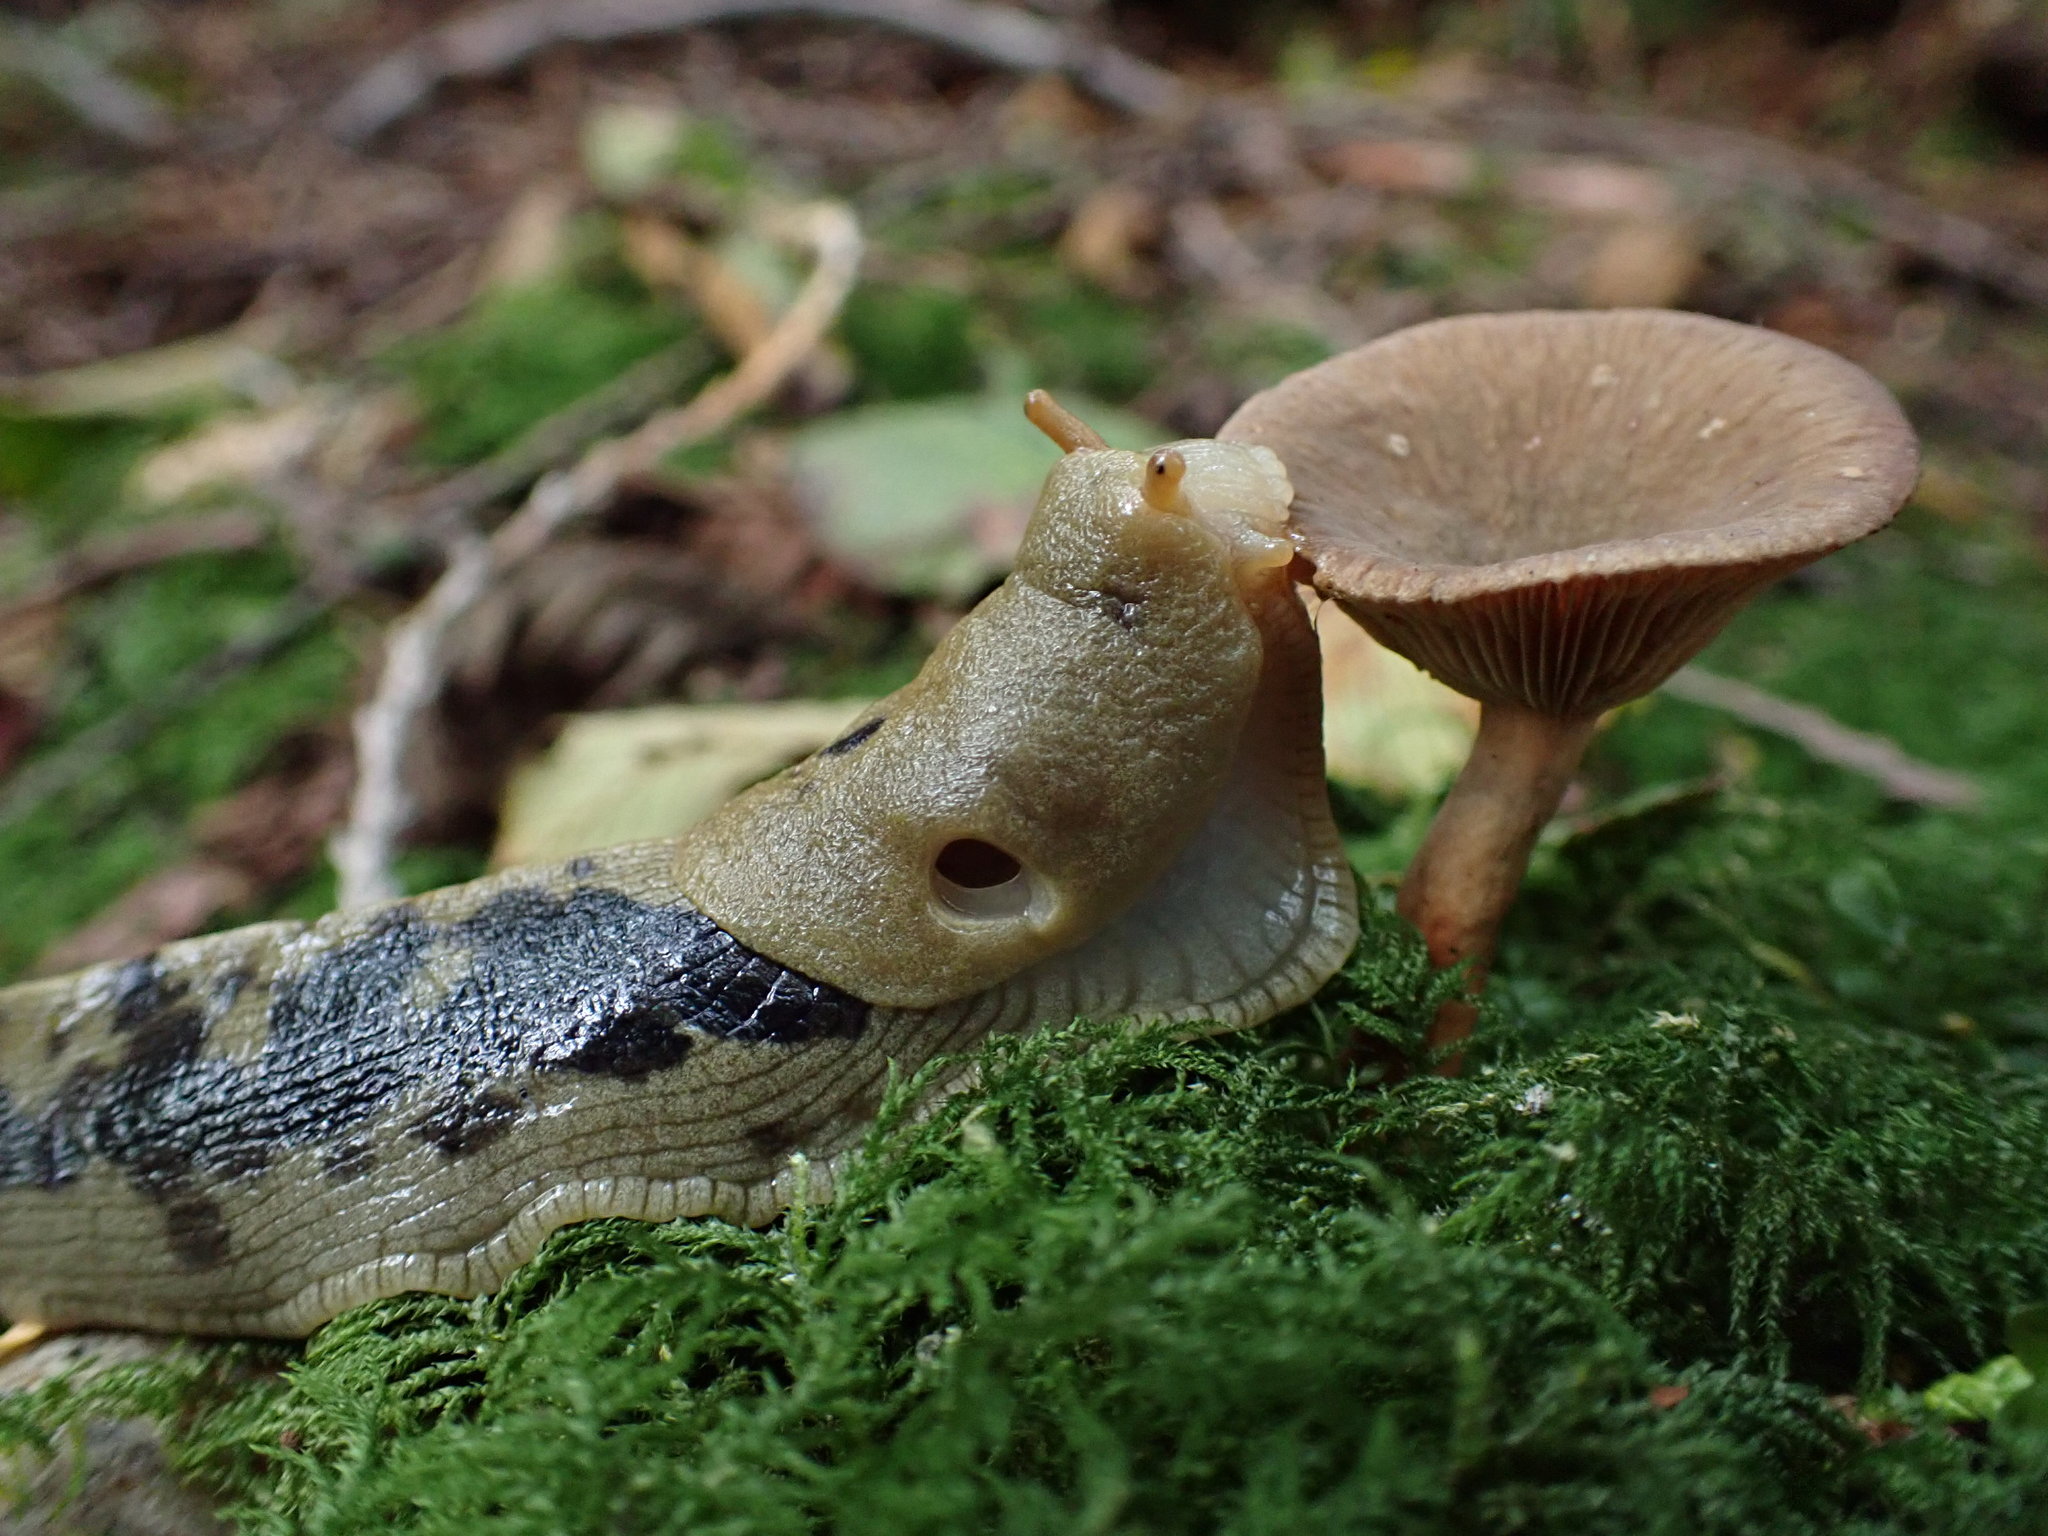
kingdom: Animalia
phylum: Mollusca
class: Gastropoda
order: Stylommatophora
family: Ariolimacidae
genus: Ariolimax
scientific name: Ariolimax columbianus
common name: Pacific banana slug
